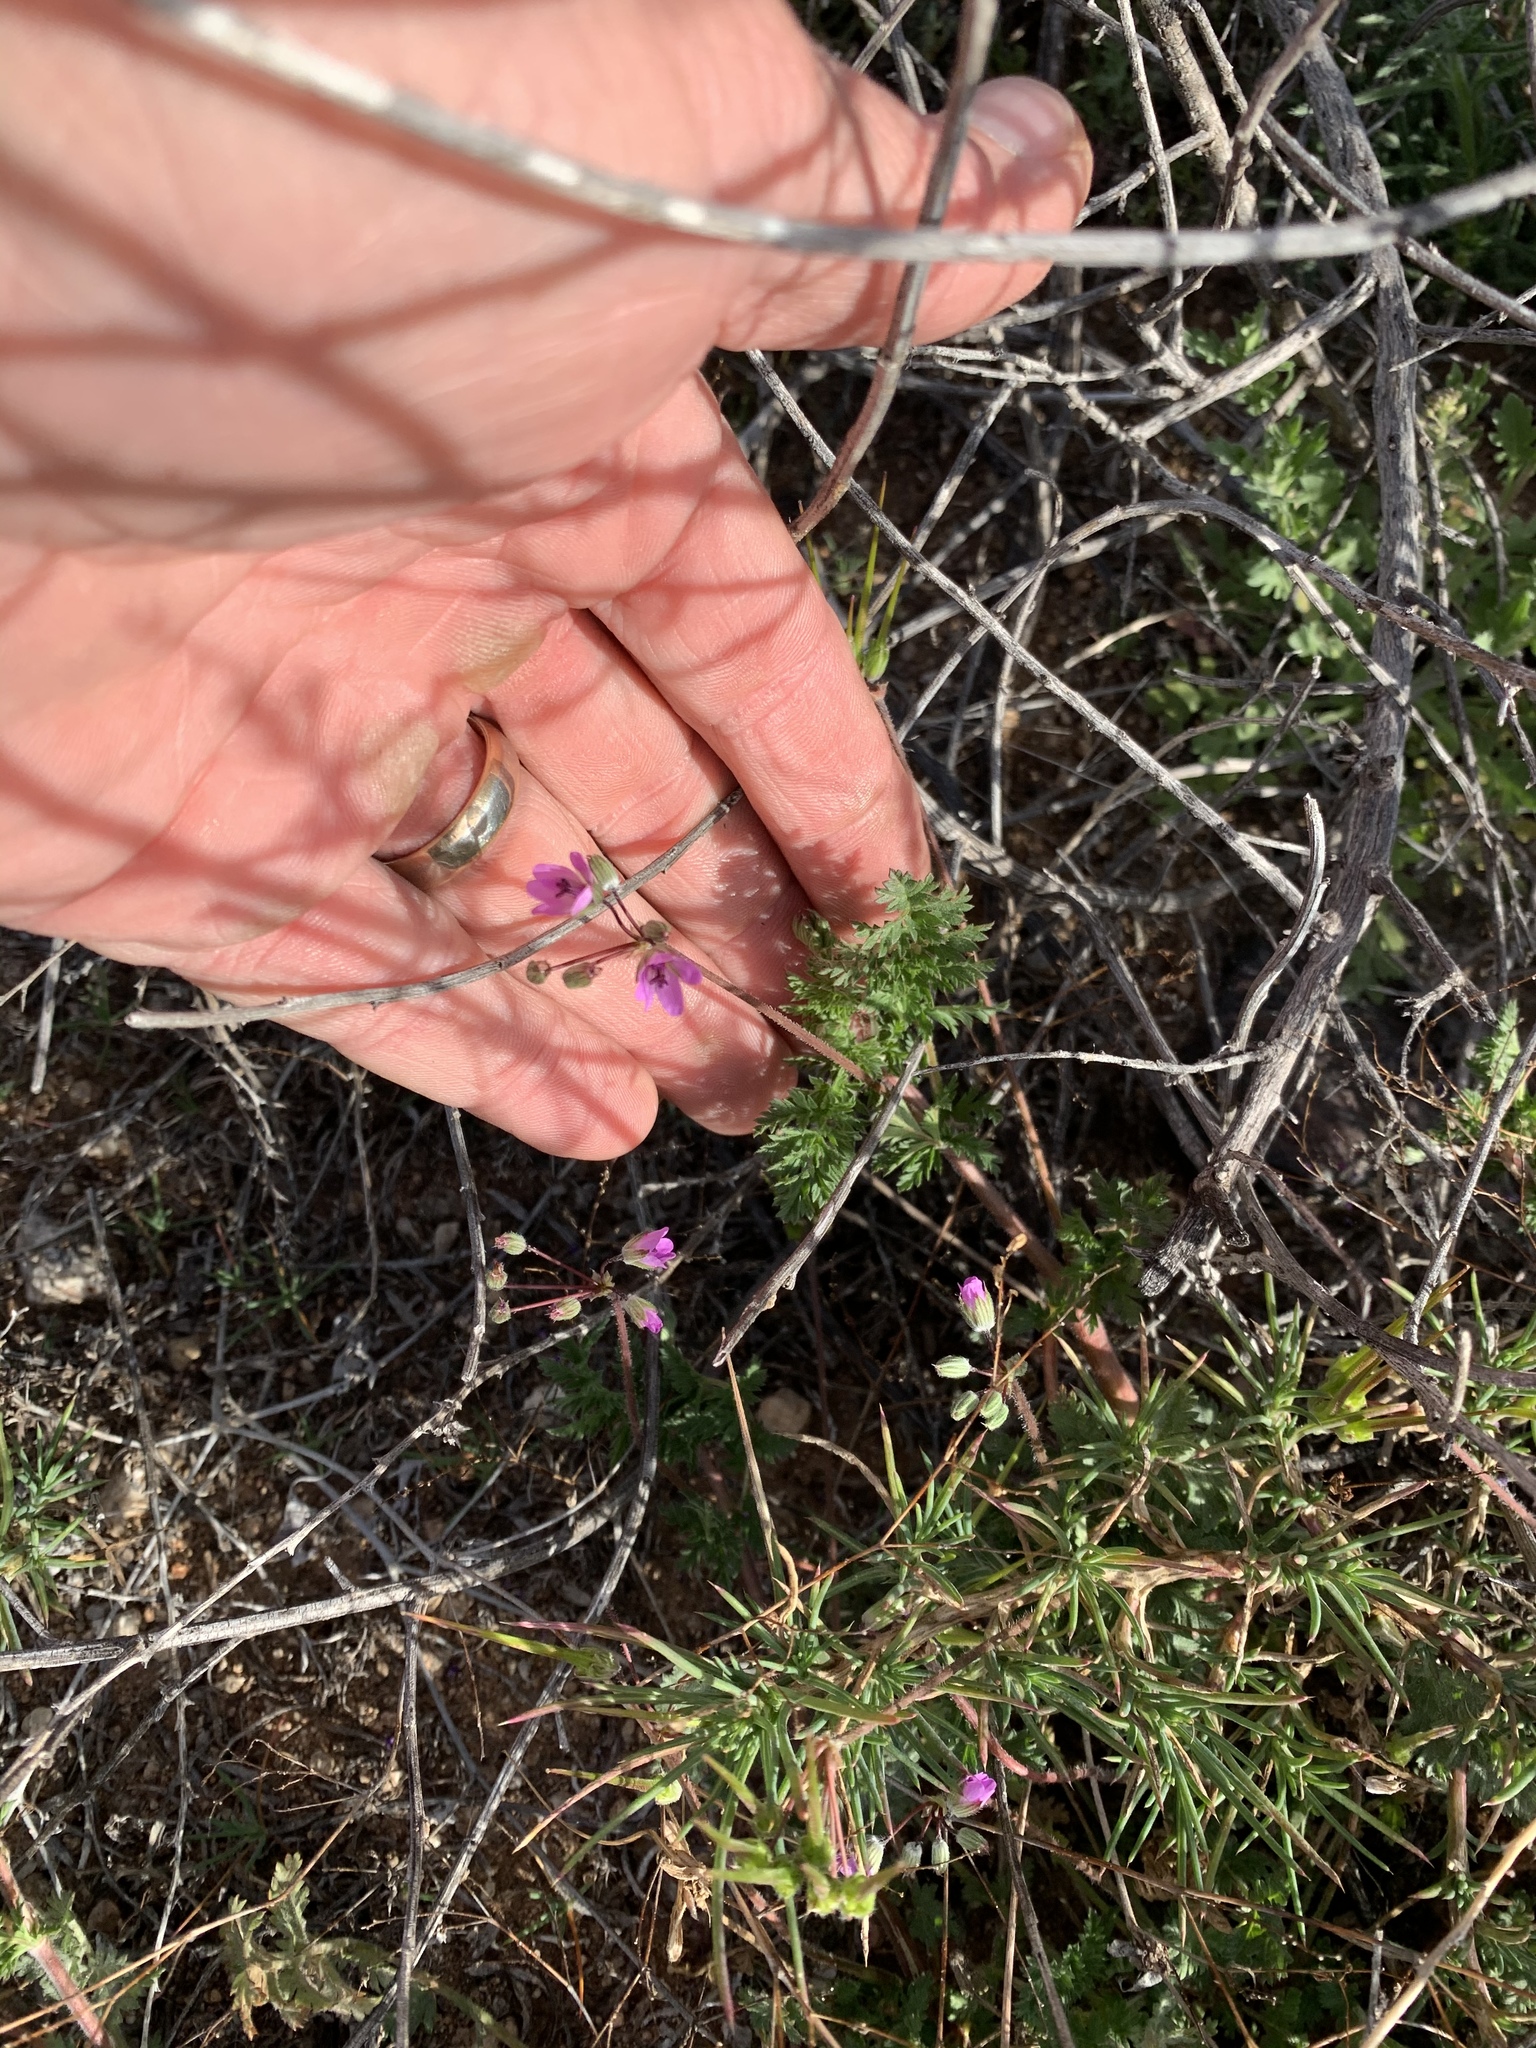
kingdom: Plantae
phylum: Tracheophyta
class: Magnoliopsida
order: Geraniales
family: Geraniaceae
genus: Erodium
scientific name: Erodium cicutarium
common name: Common stork's-bill
